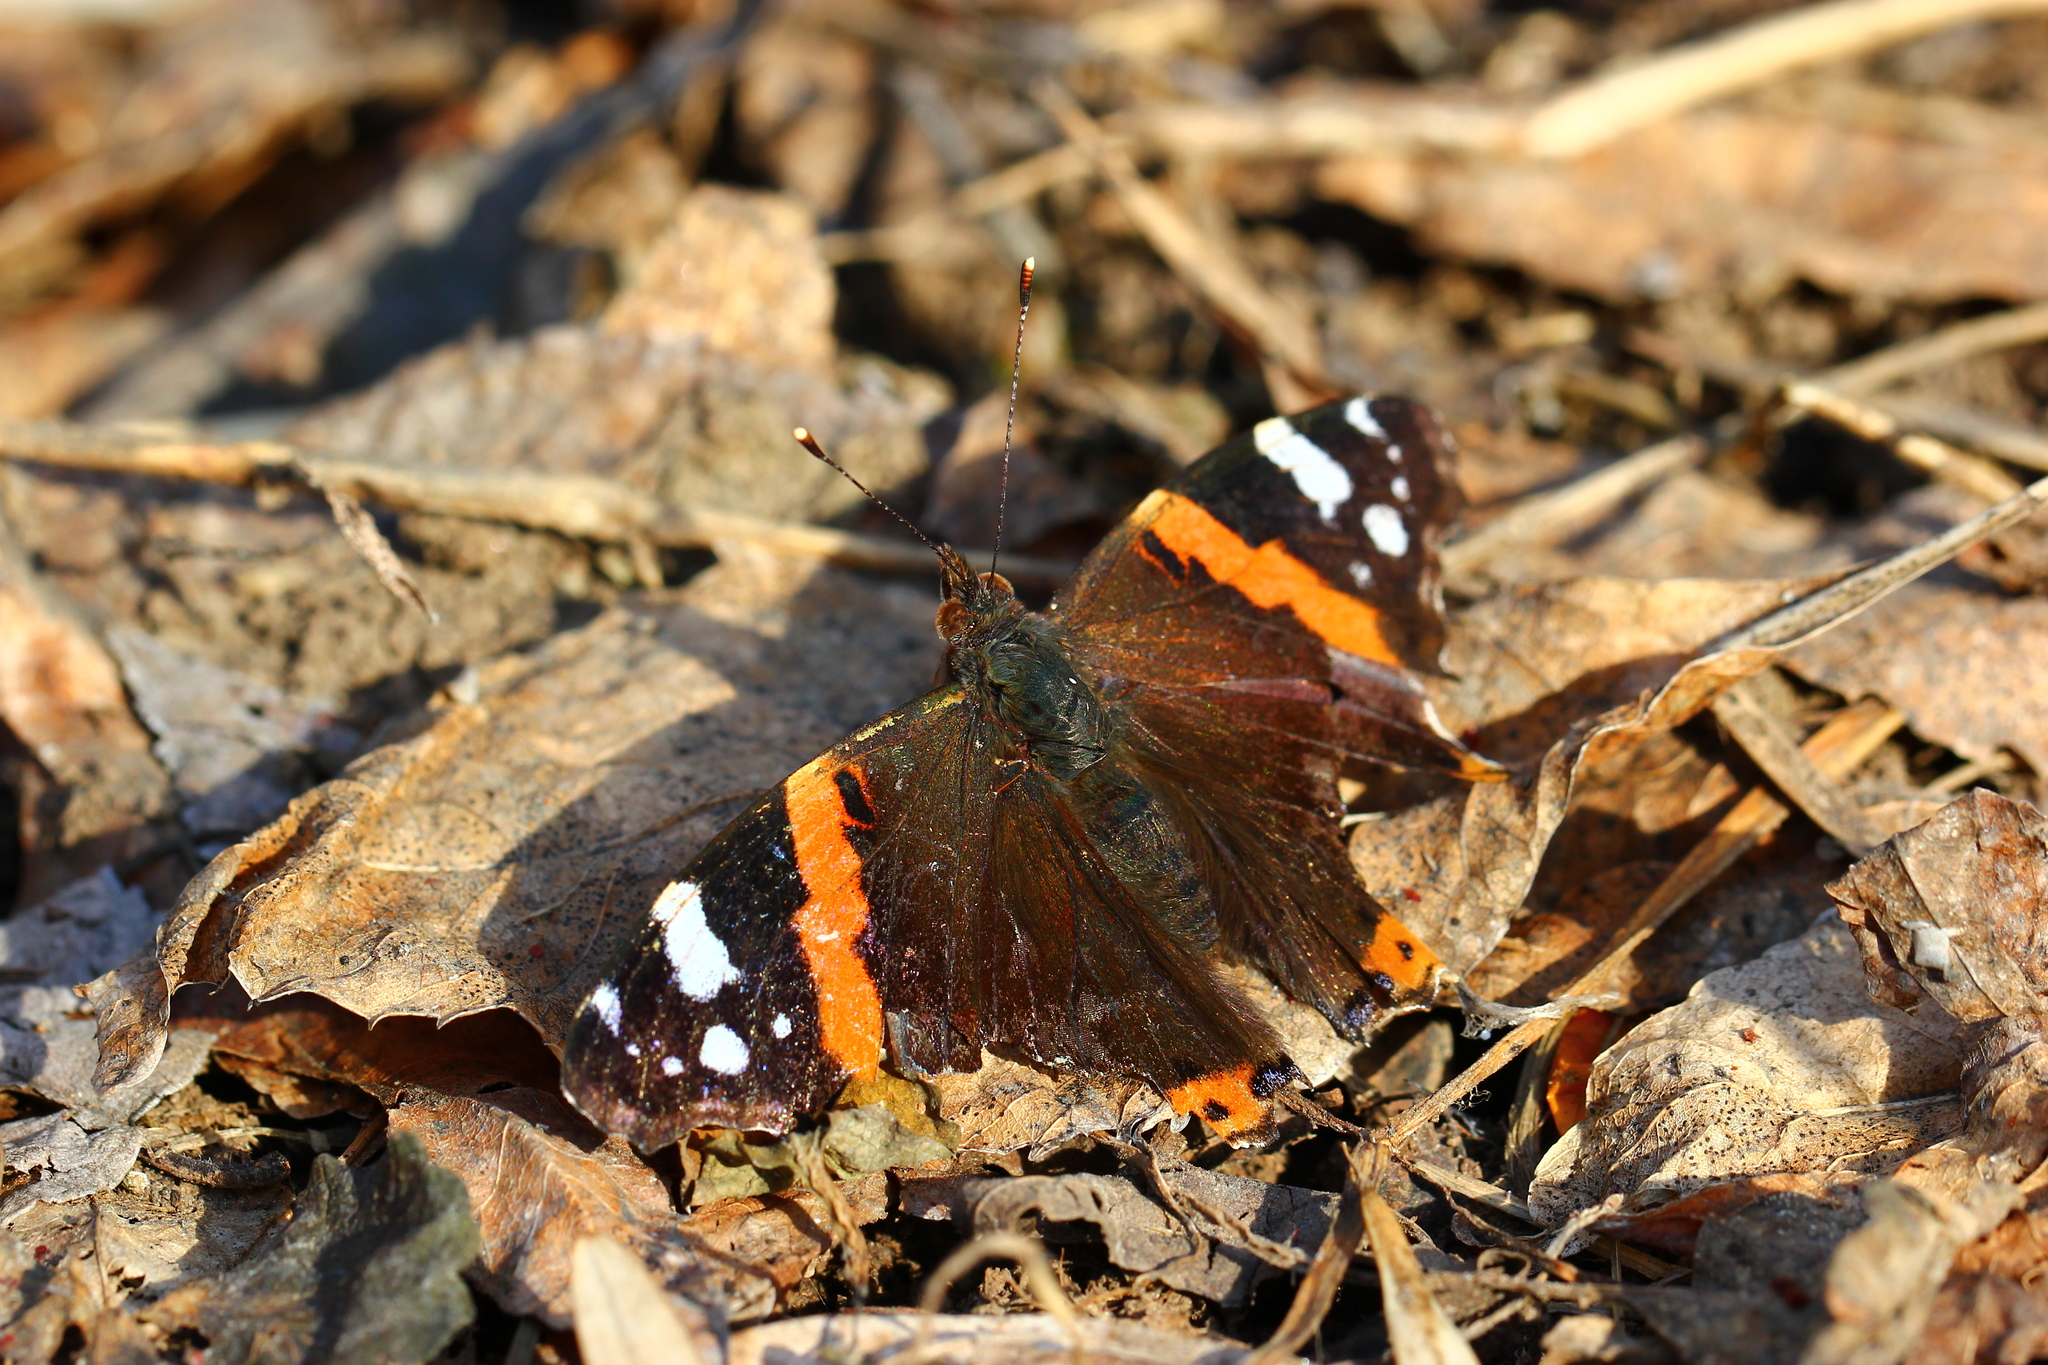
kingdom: Animalia
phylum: Arthropoda
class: Insecta
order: Lepidoptera
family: Nymphalidae
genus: Vanessa
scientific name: Vanessa atalanta
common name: Red admiral
